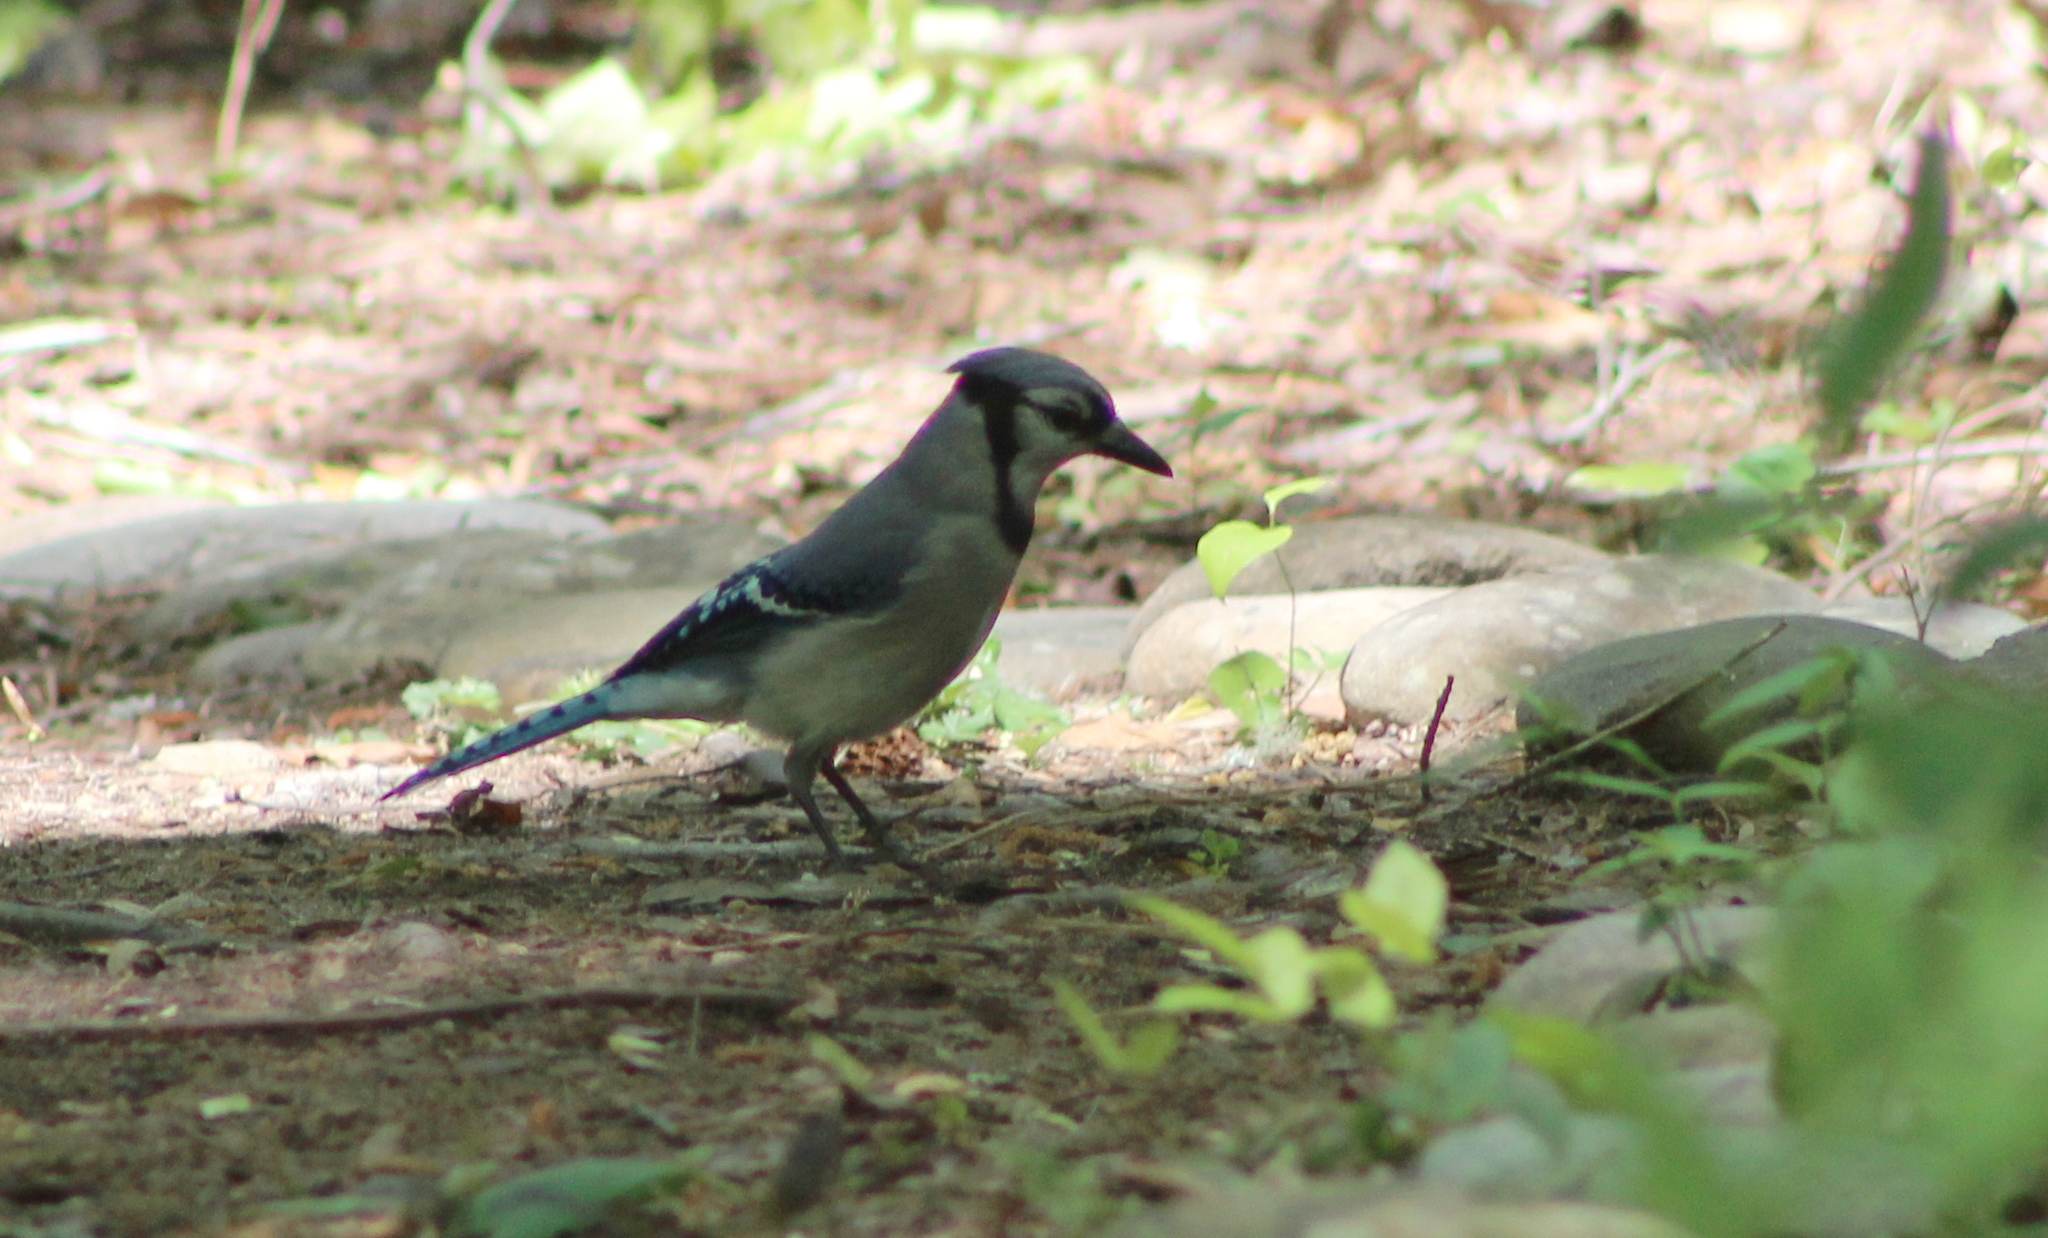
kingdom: Animalia
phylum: Chordata
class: Aves
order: Passeriformes
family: Corvidae
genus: Cyanocitta
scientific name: Cyanocitta cristata
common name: Blue jay
